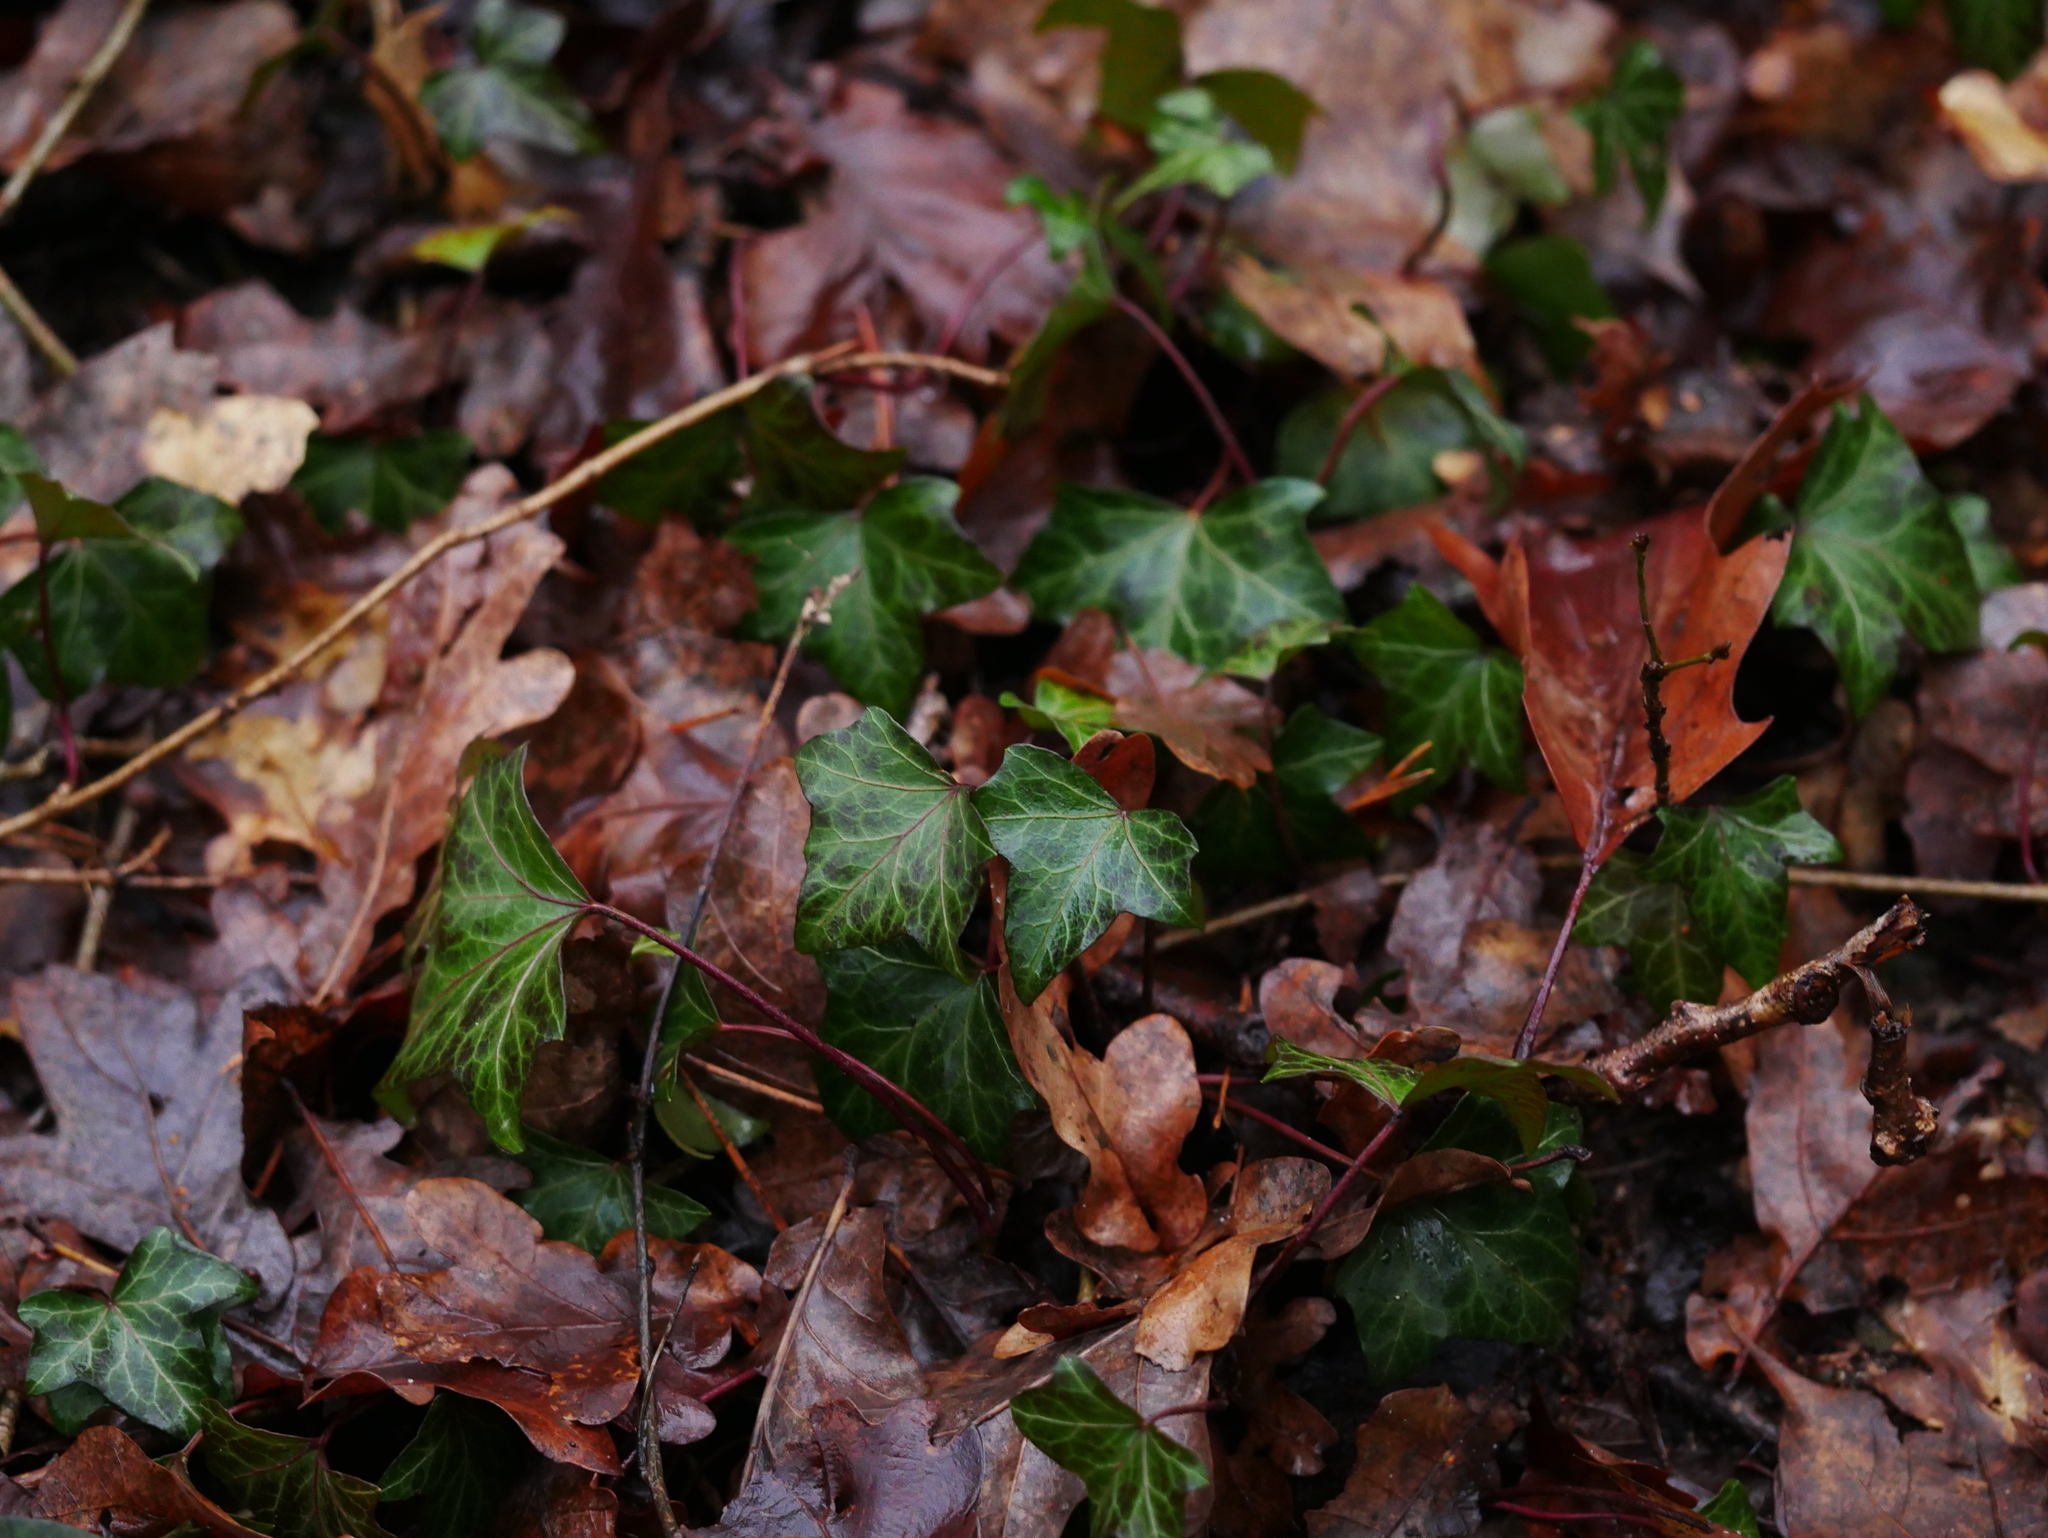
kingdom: Plantae
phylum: Tracheophyta
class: Magnoliopsida
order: Apiales
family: Araliaceae
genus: Hedera
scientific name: Hedera helix
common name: Ivy
